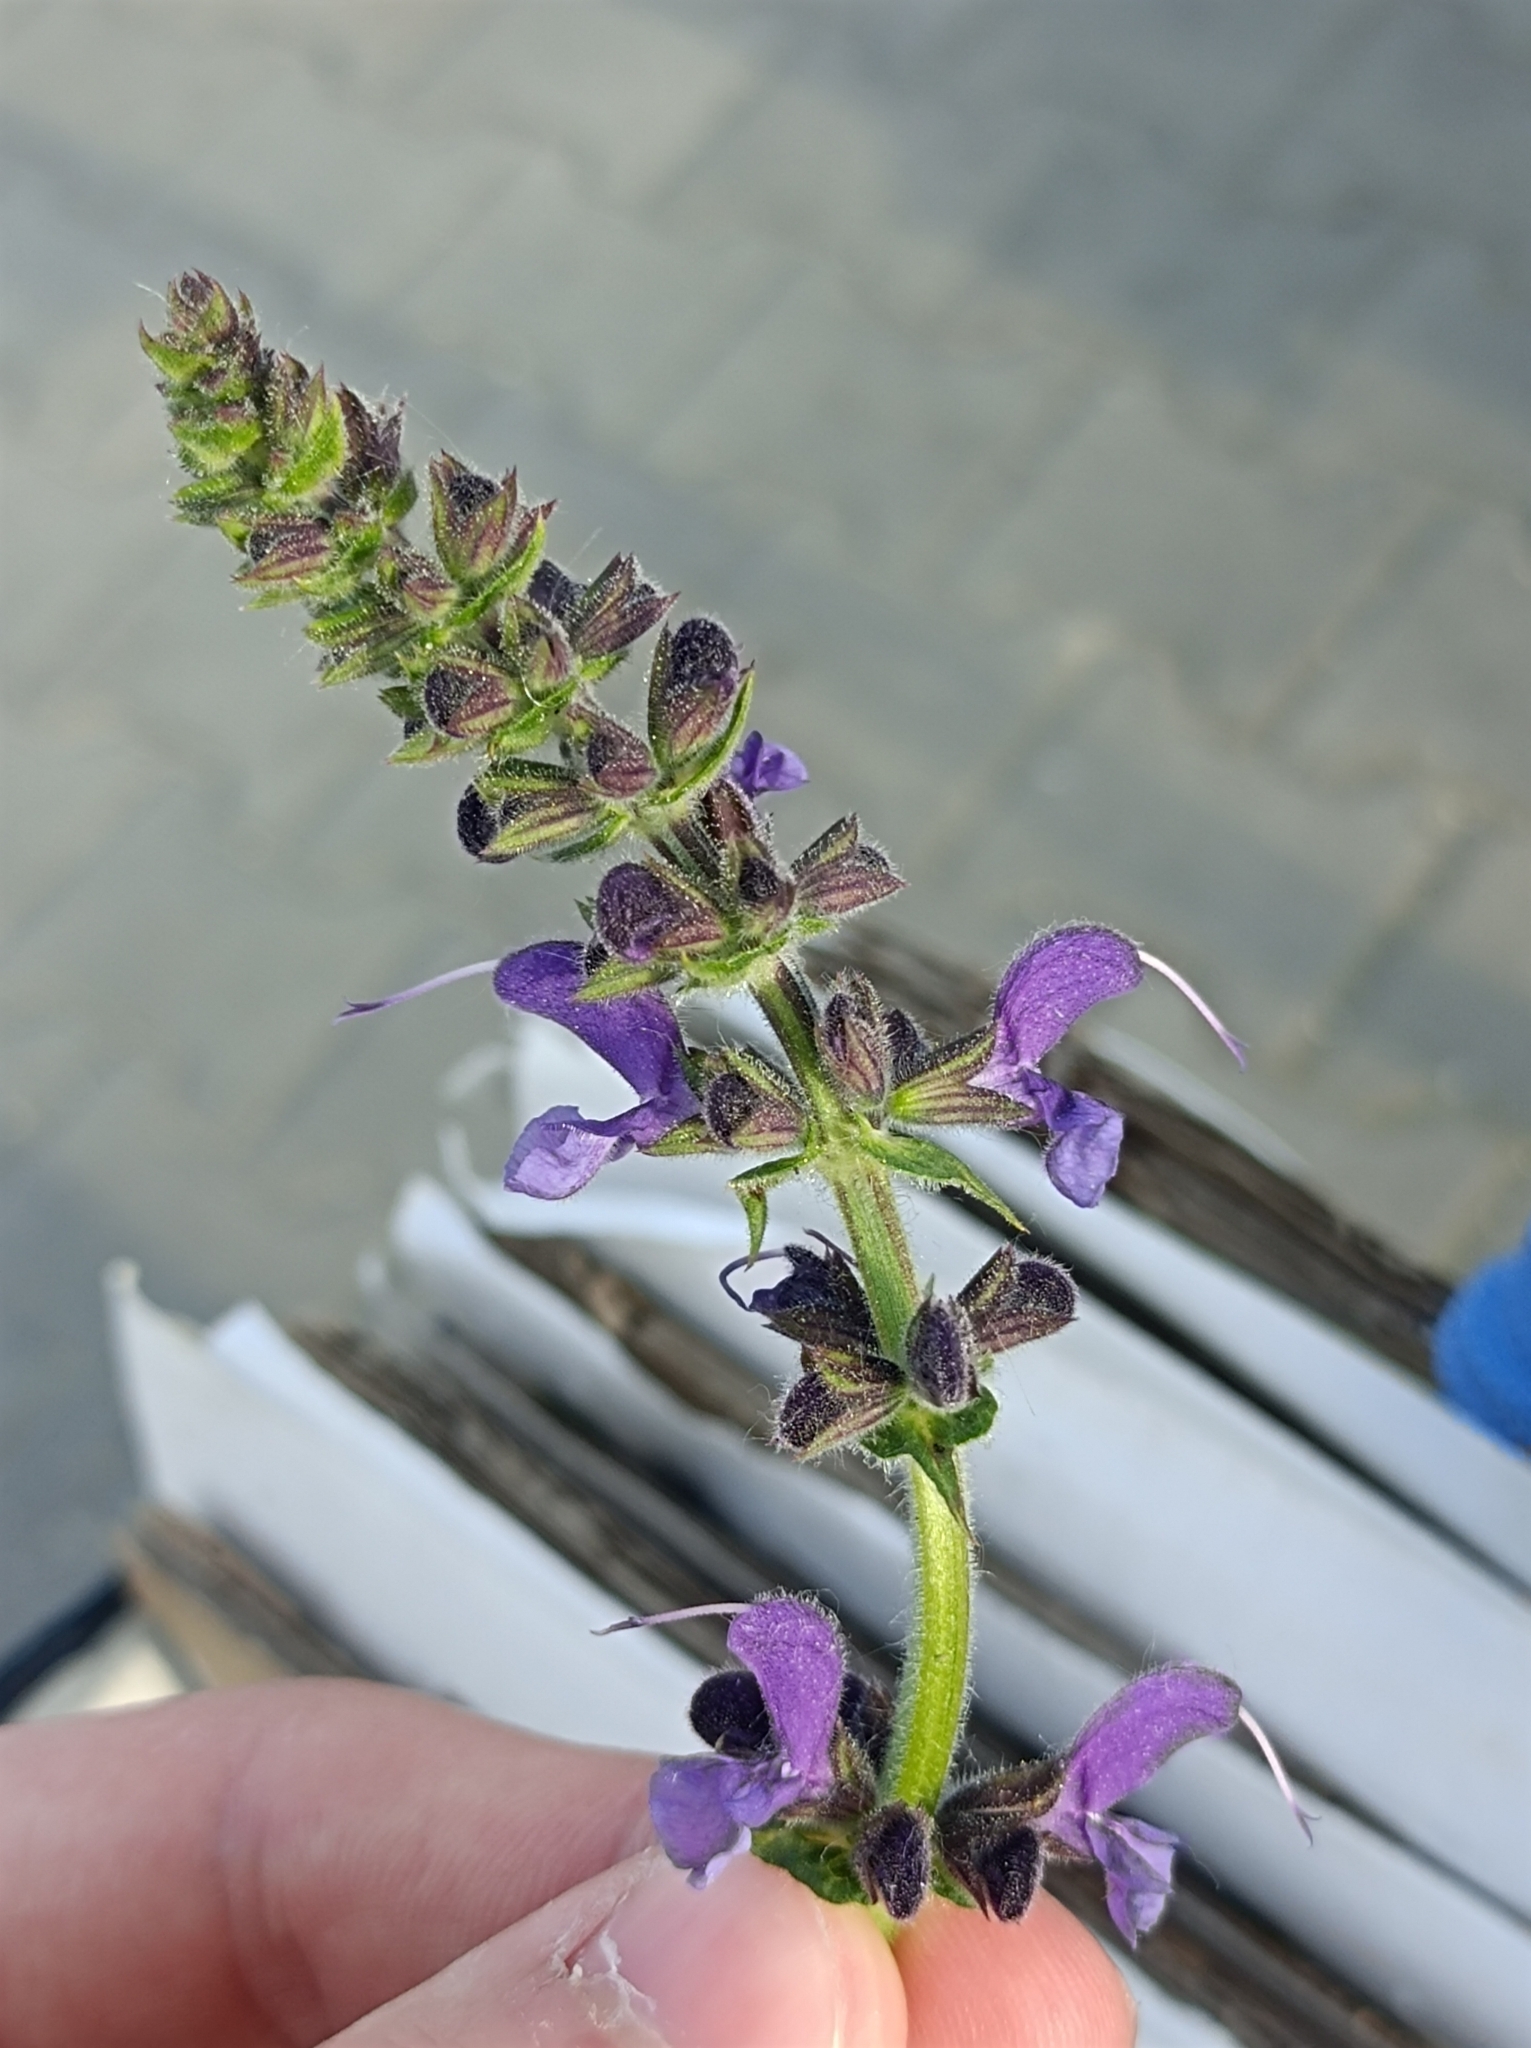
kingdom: Plantae
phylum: Tracheophyta
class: Magnoliopsida
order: Lamiales
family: Lamiaceae
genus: Salvia
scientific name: Salvia pratensis
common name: Meadow sage
